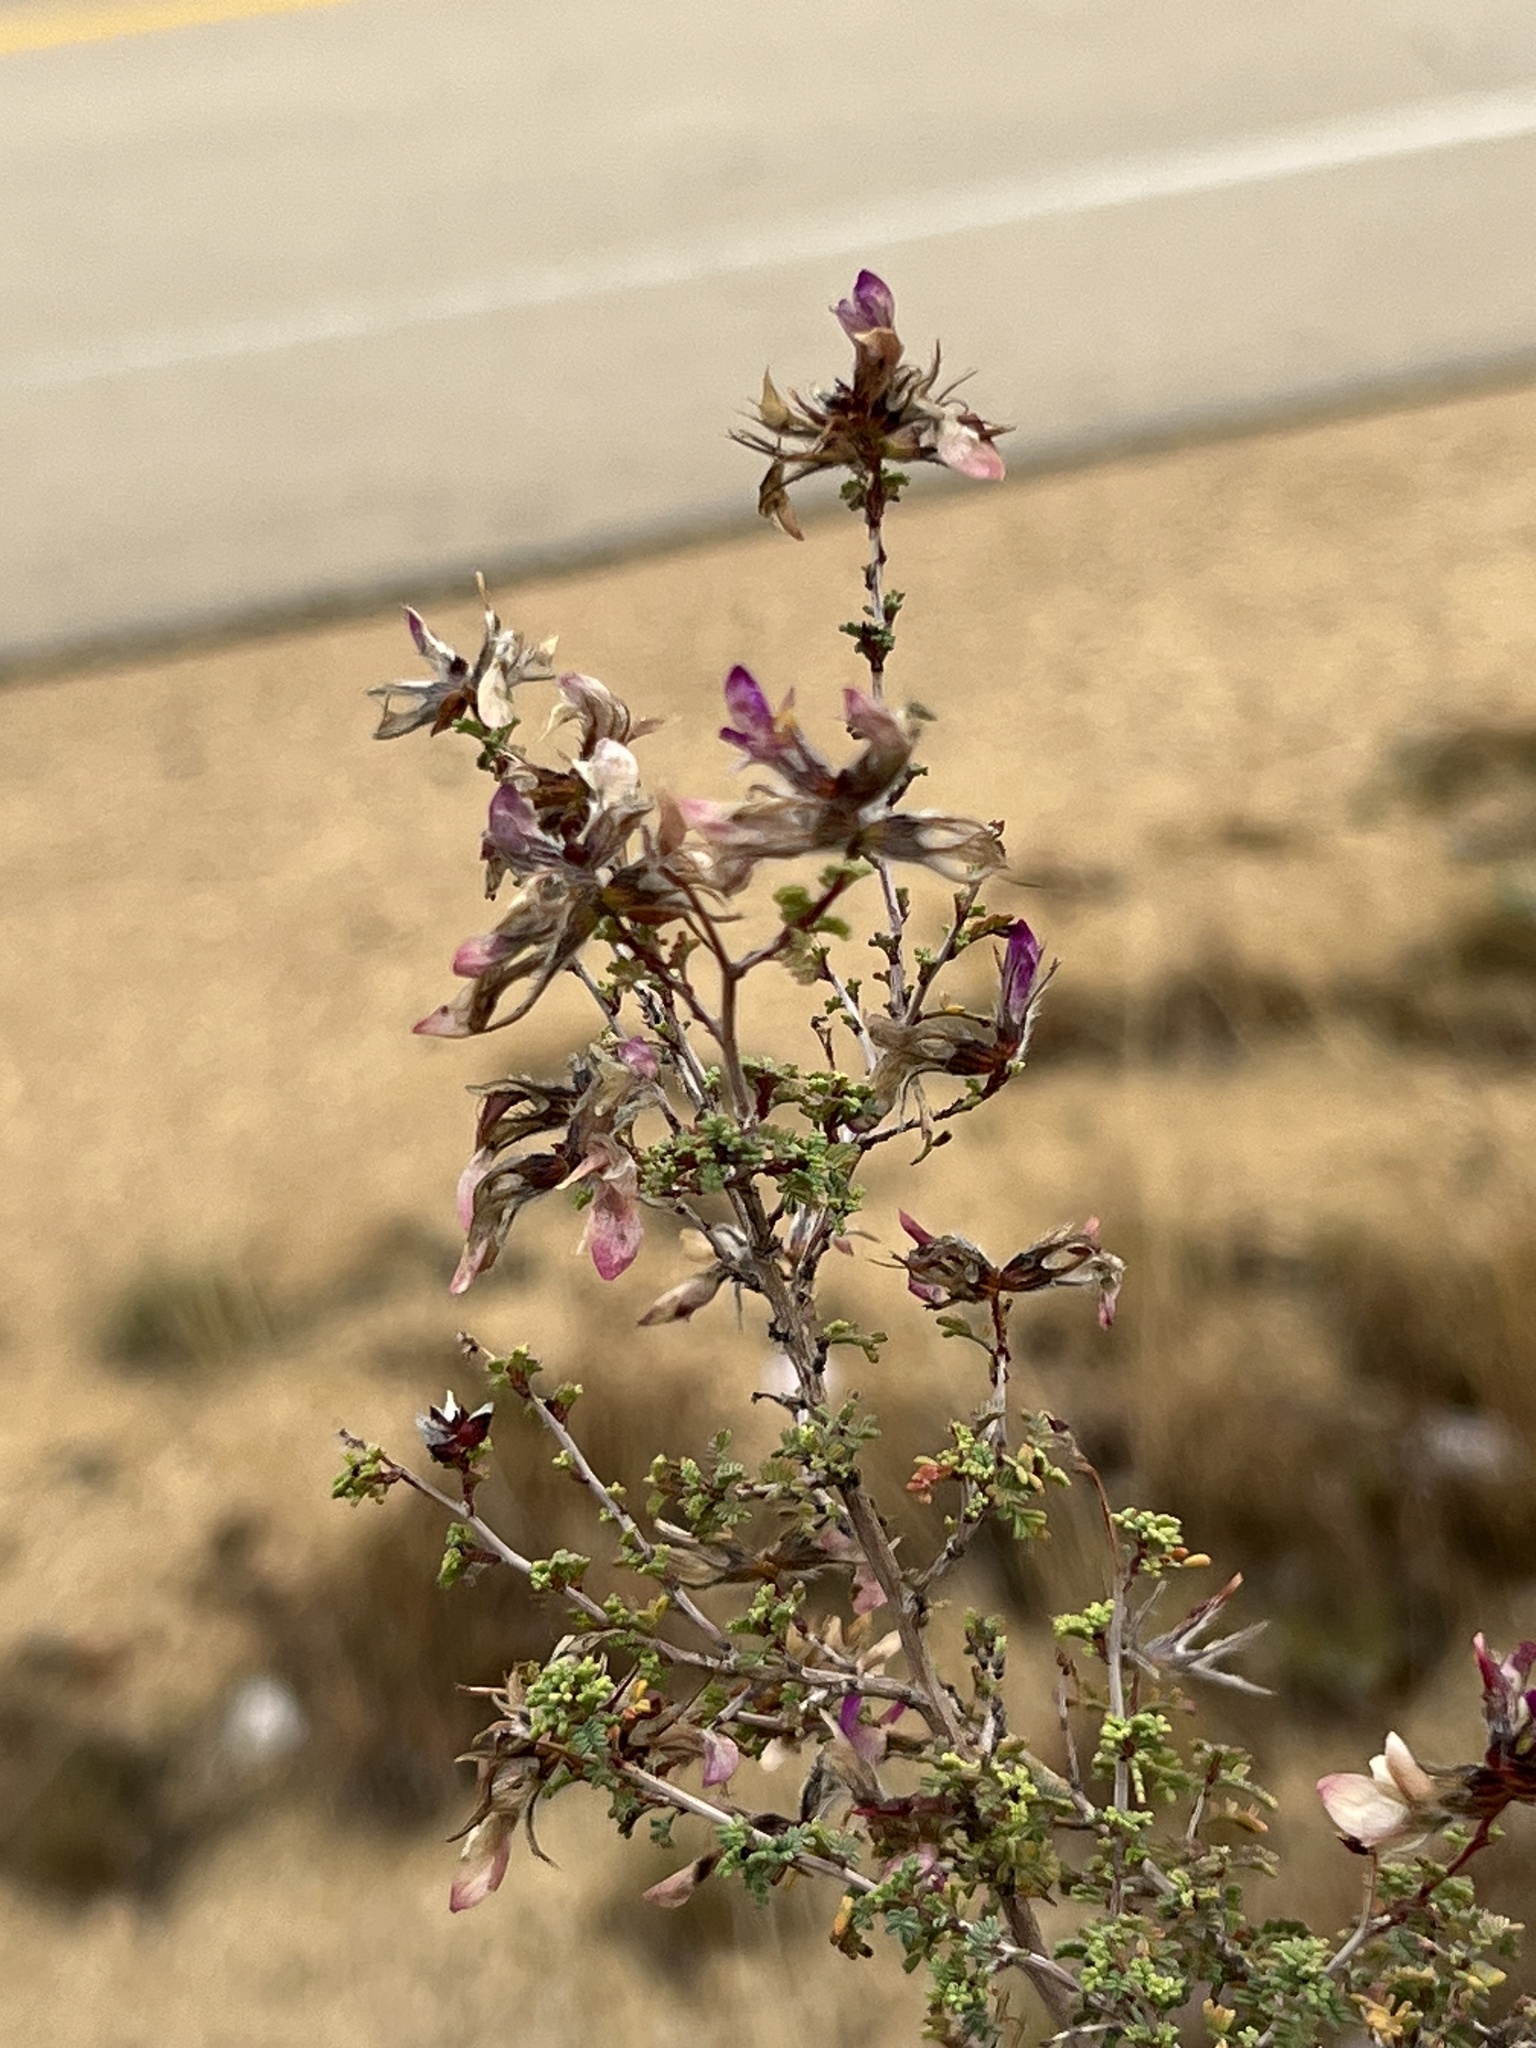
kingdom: Plantae
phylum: Tracheophyta
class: Magnoliopsida
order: Fabales
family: Fabaceae
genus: Dalea
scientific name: Dalea formosa
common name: Feather-plume dalea
